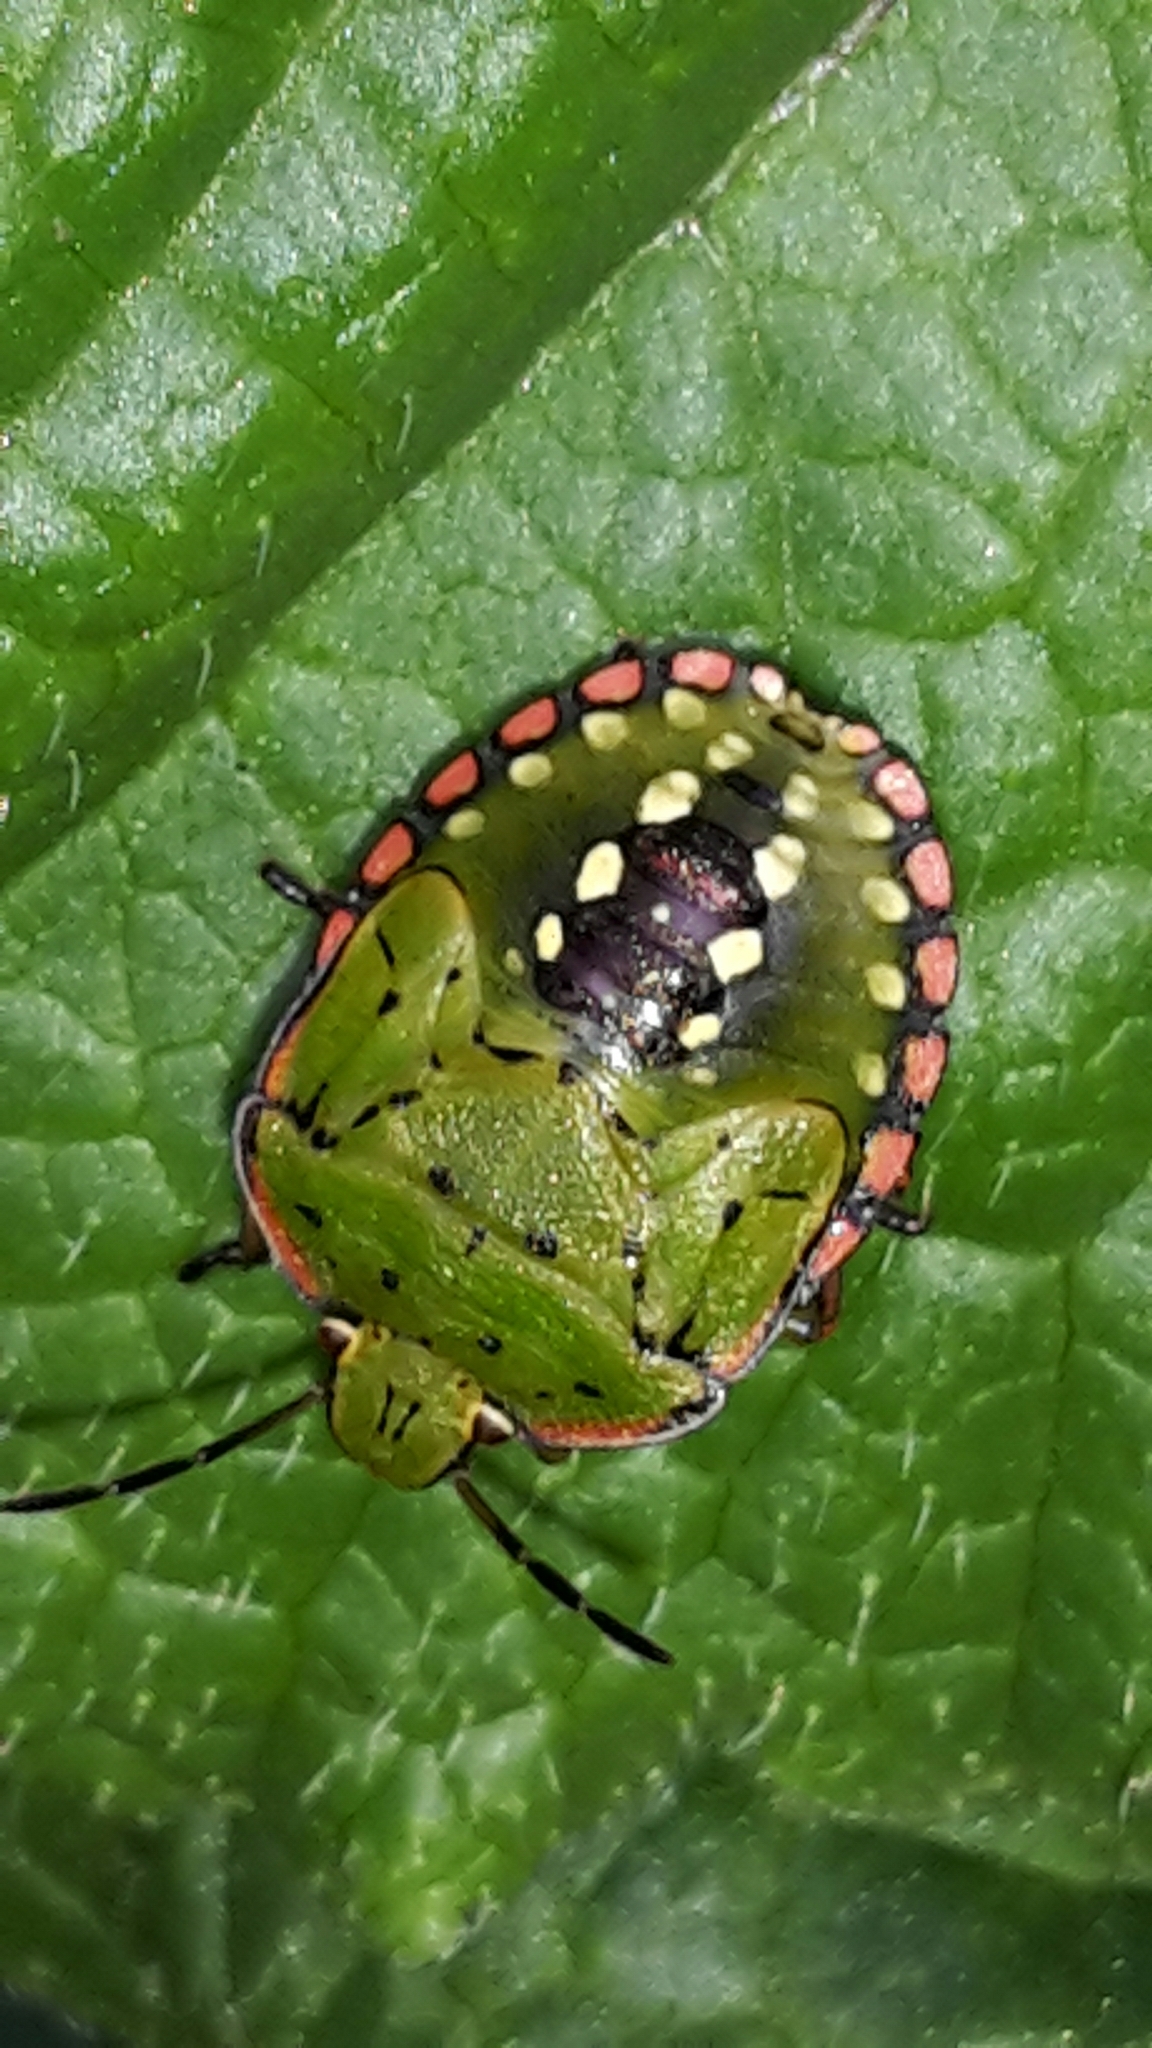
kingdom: Animalia
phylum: Arthropoda
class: Insecta
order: Hemiptera
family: Pentatomidae
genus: Nezara
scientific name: Nezara viridula
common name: Southern green stink bug
